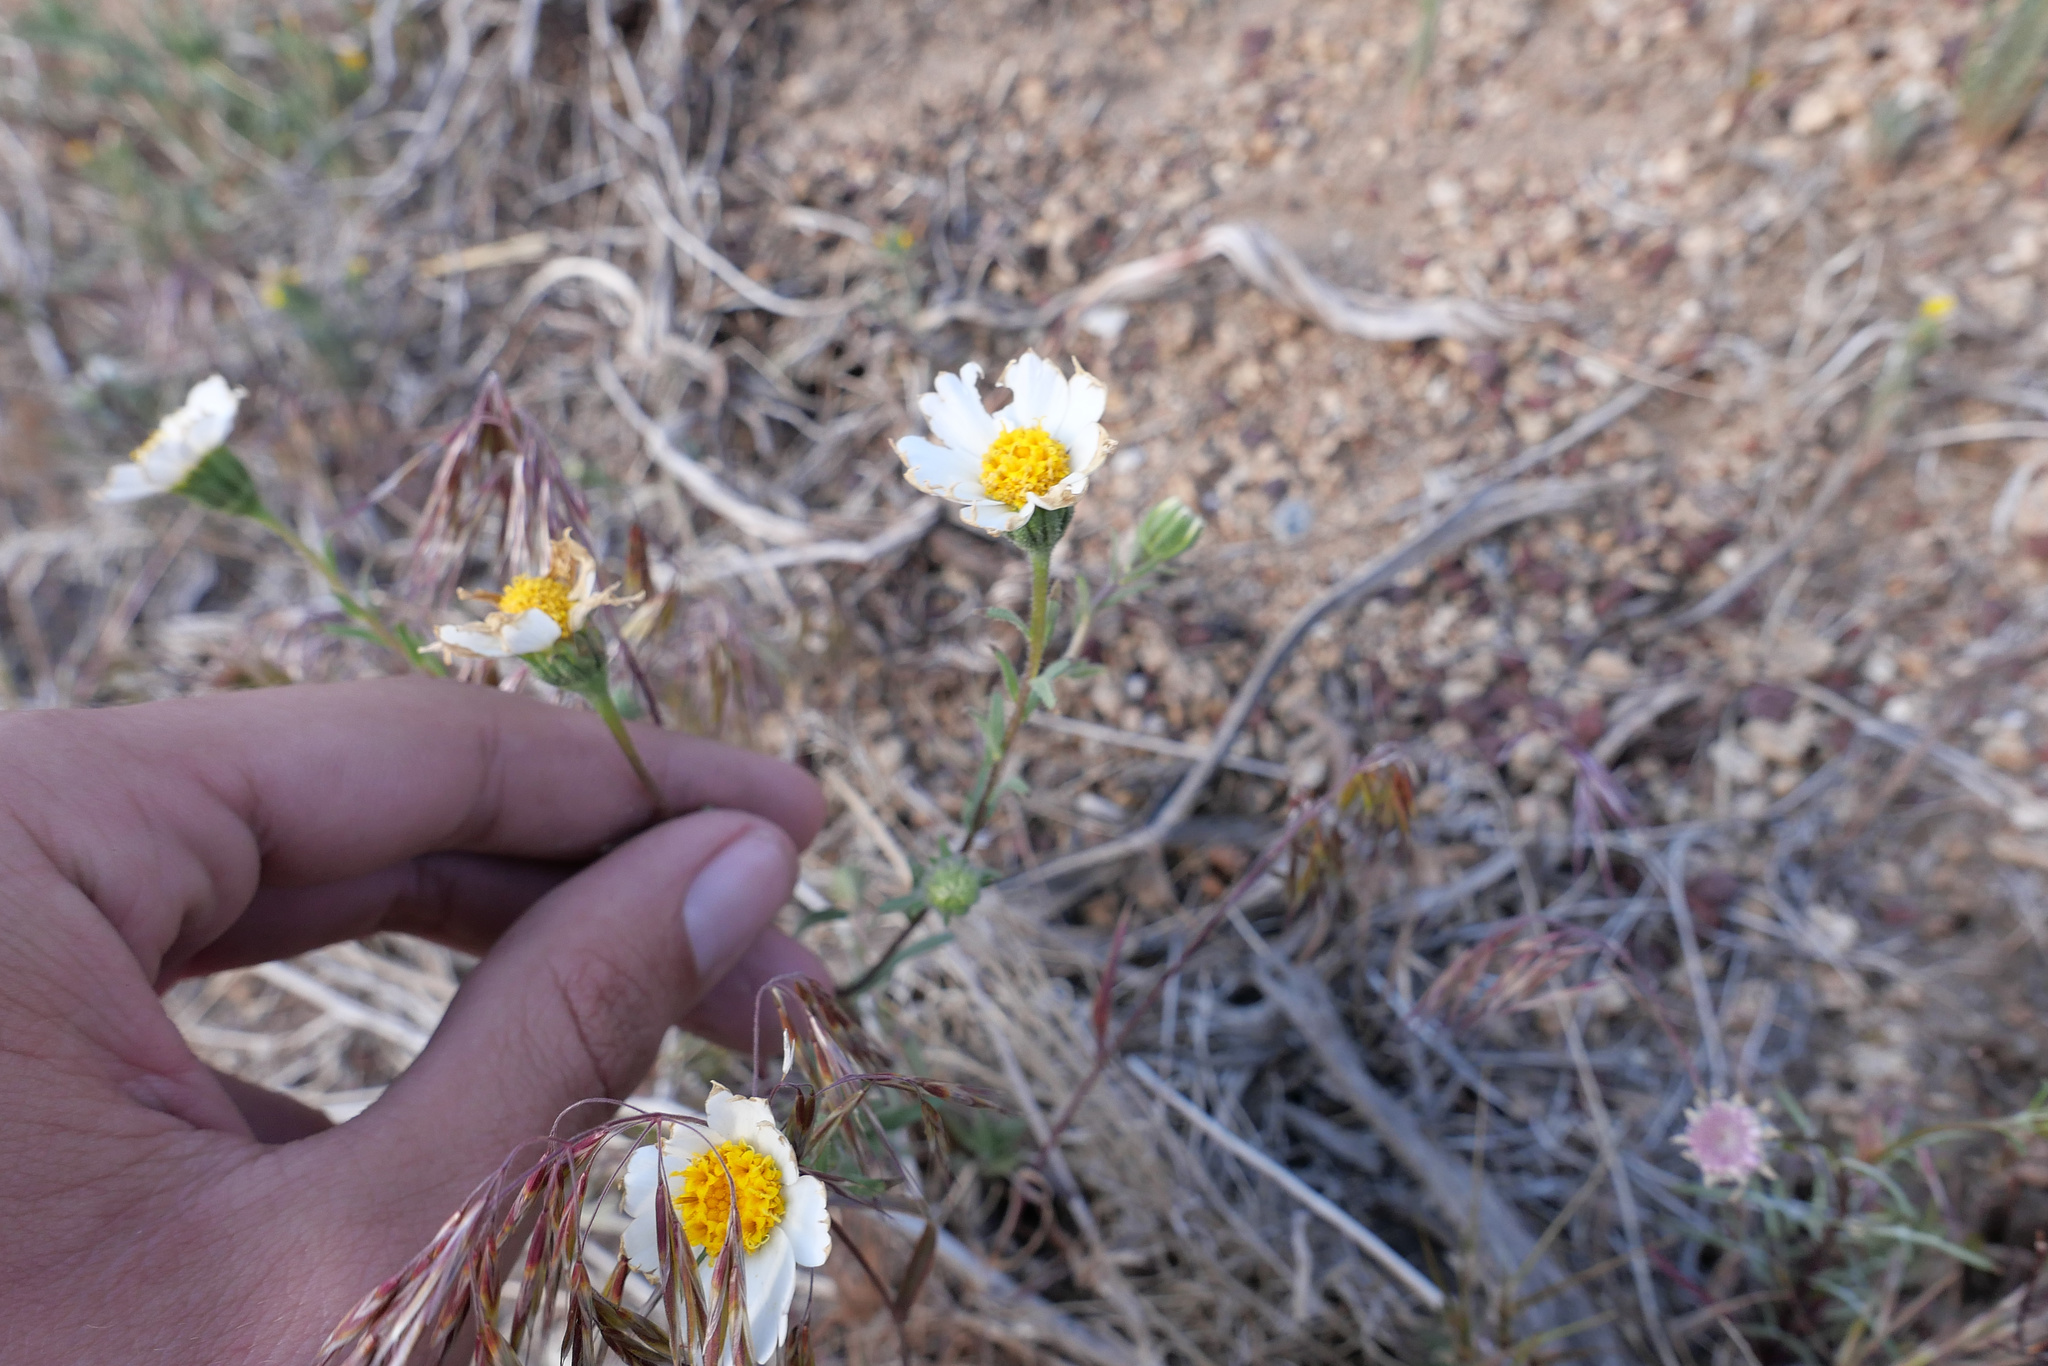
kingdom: Plantae
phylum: Tracheophyta
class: Magnoliopsida
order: Asterales
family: Asteraceae
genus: Layia
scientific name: Layia glandulosa
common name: White layia
